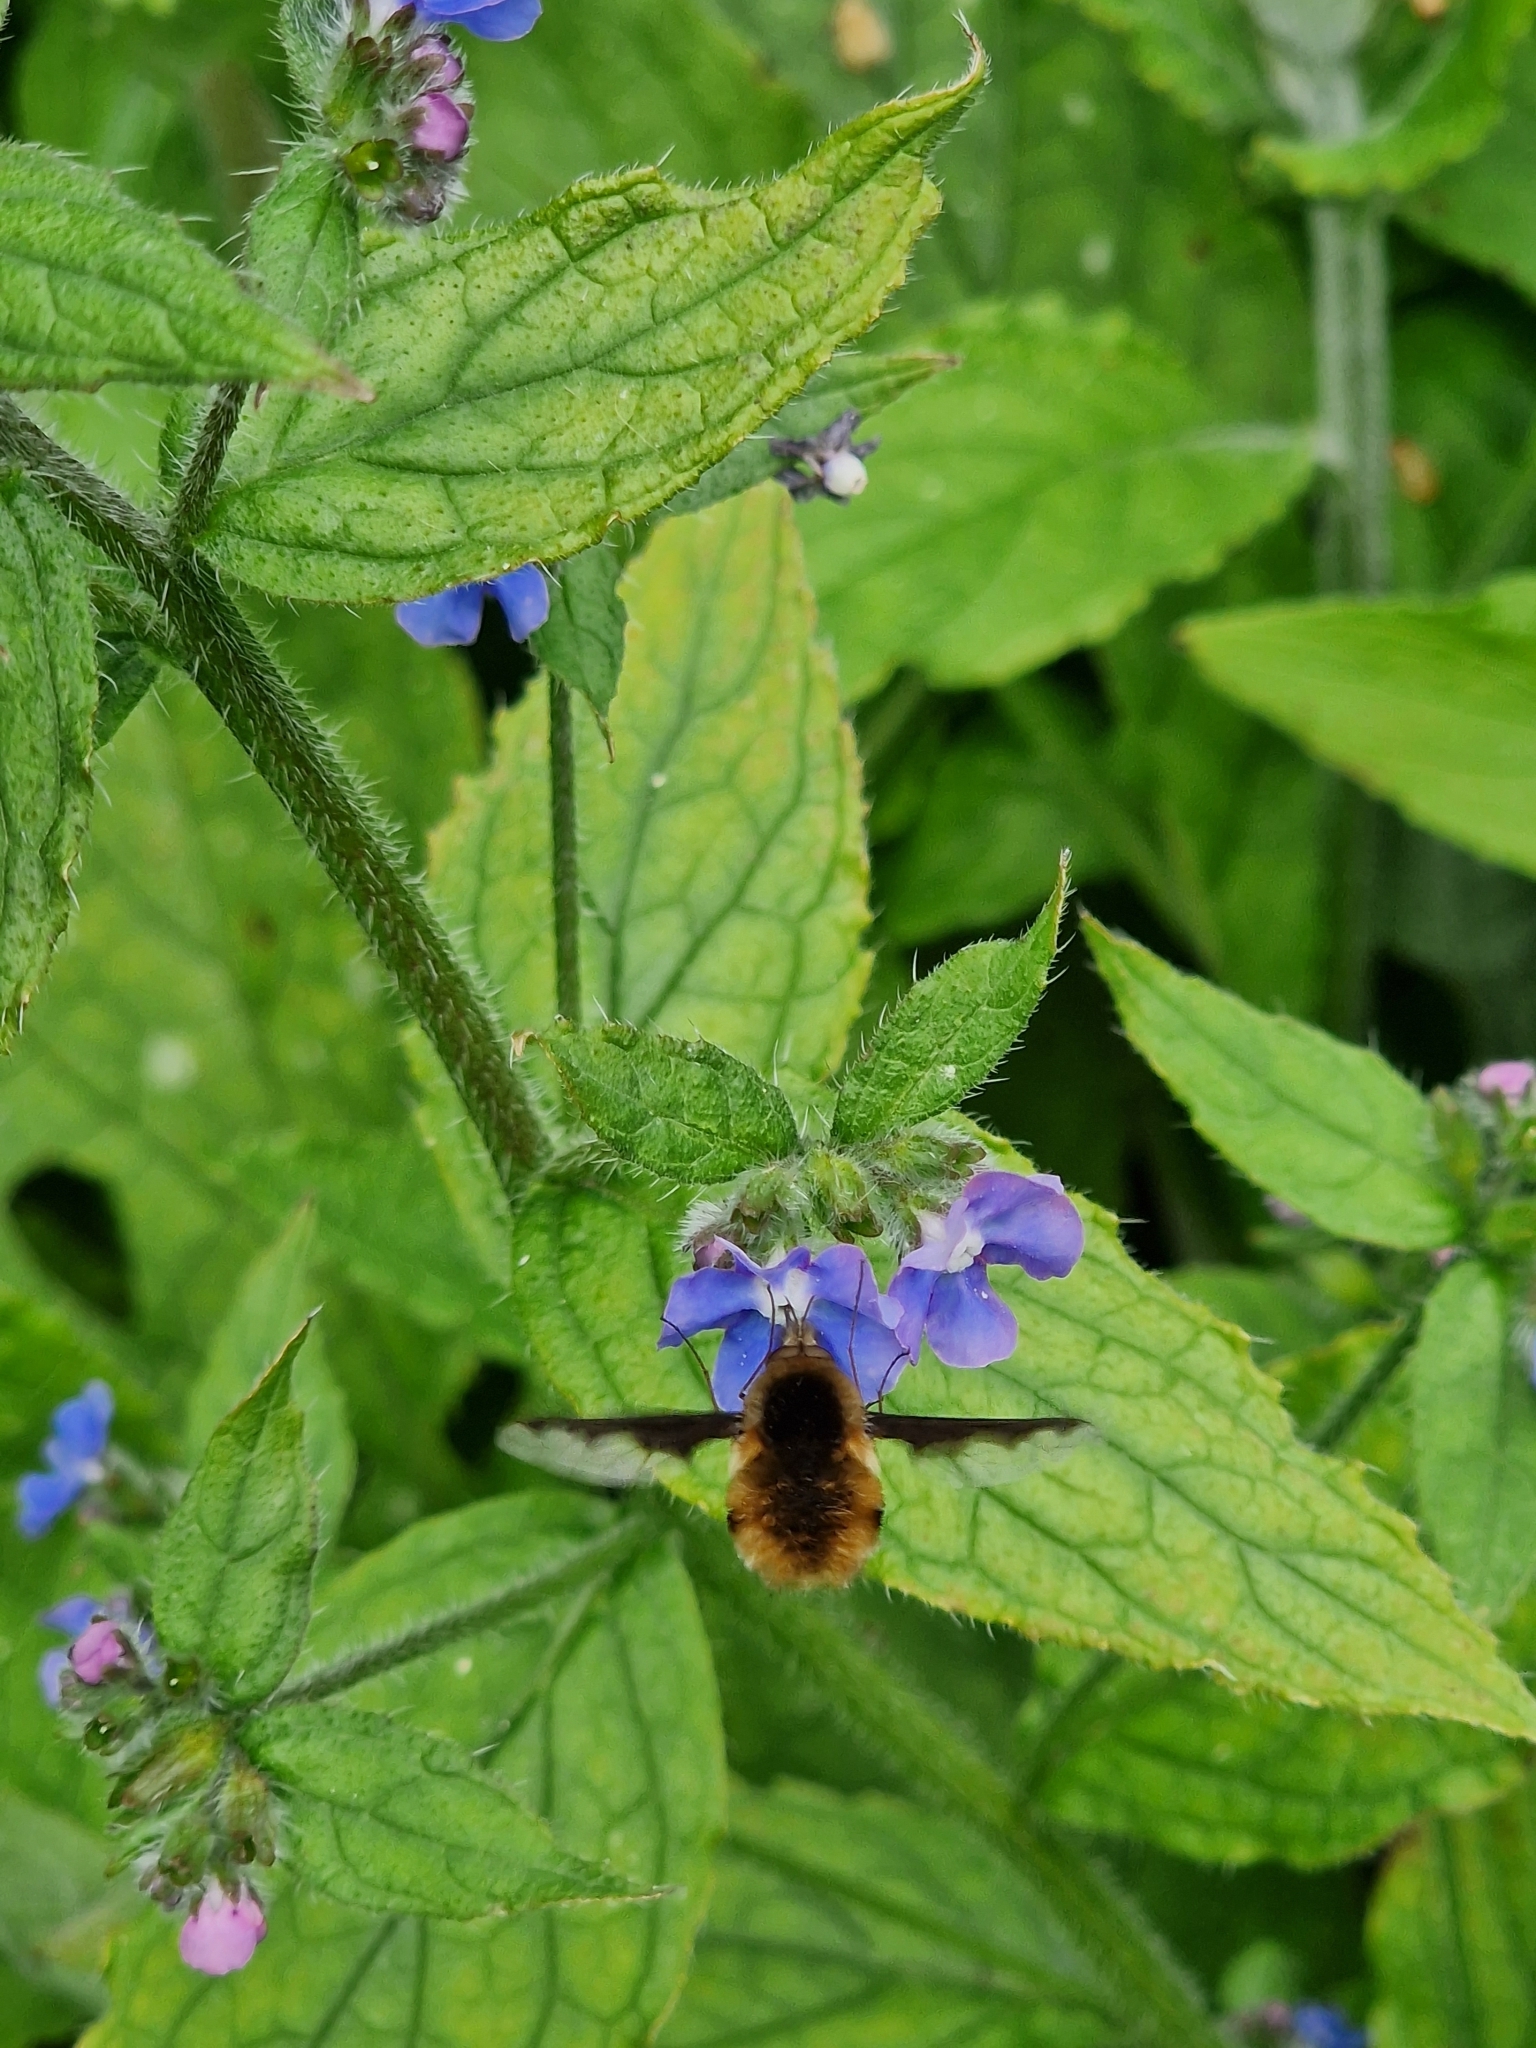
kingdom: Animalia
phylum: Arthropoda
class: Insecta
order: Diptera
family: Bombyliidae
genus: Bombylius
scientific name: Bombylius major
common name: Bee fly
